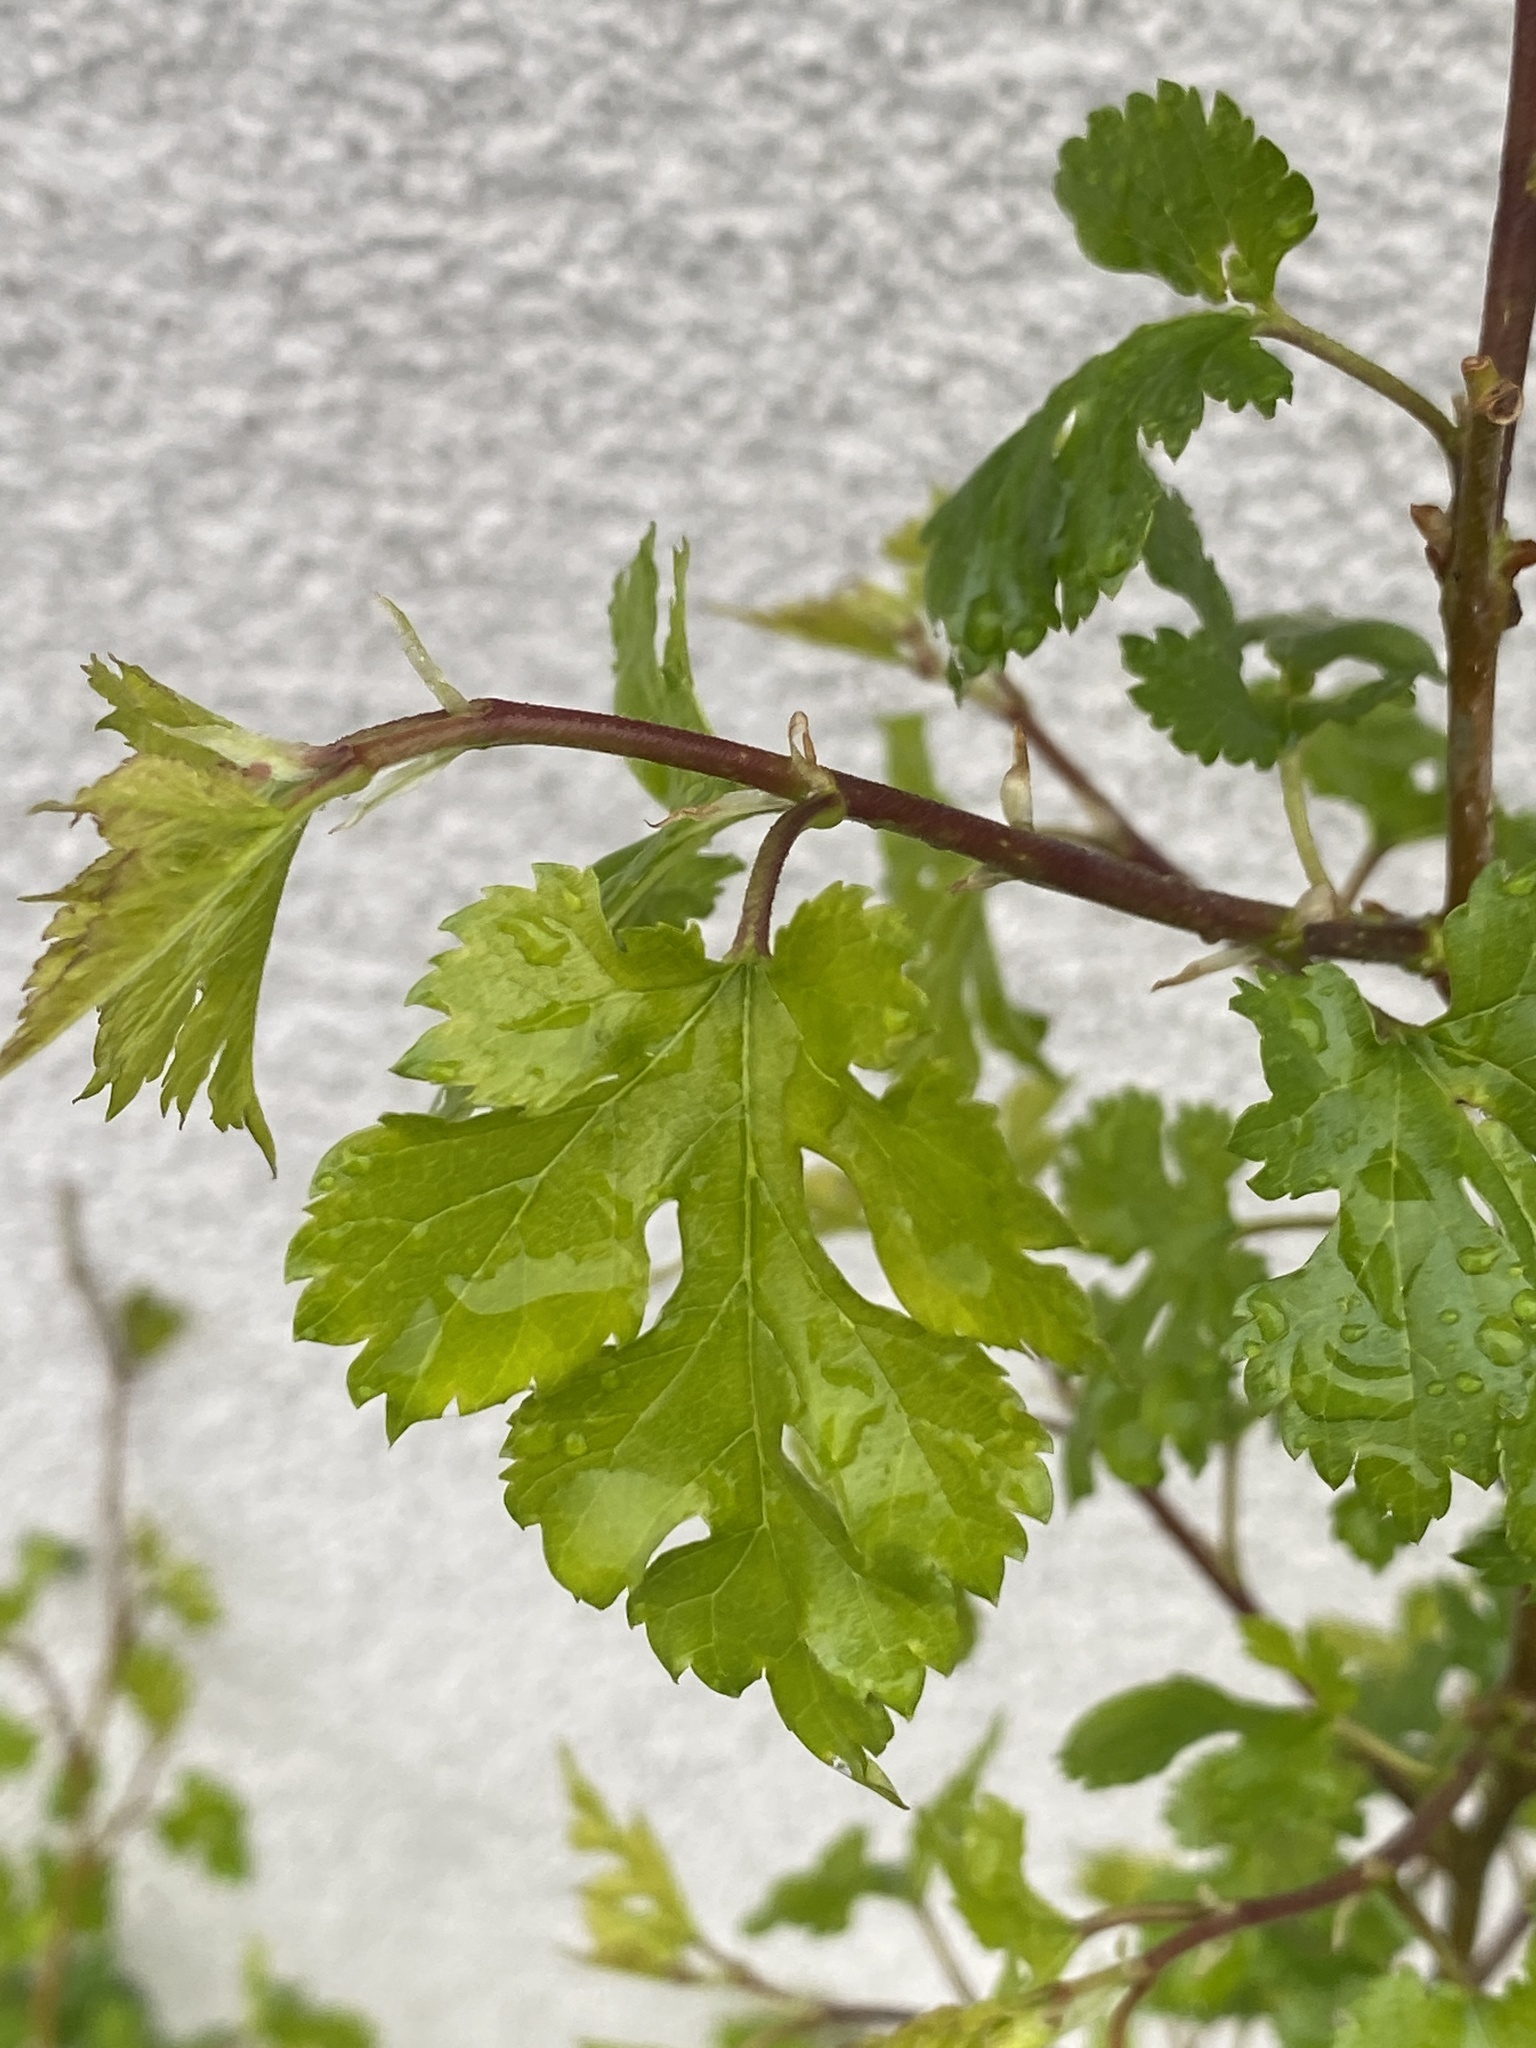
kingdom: Plantae
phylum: Tracheophyta
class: Magnoliopsida
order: Rosales
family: Moraceae
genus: Morus
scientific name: Morus alba
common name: White mulberry
